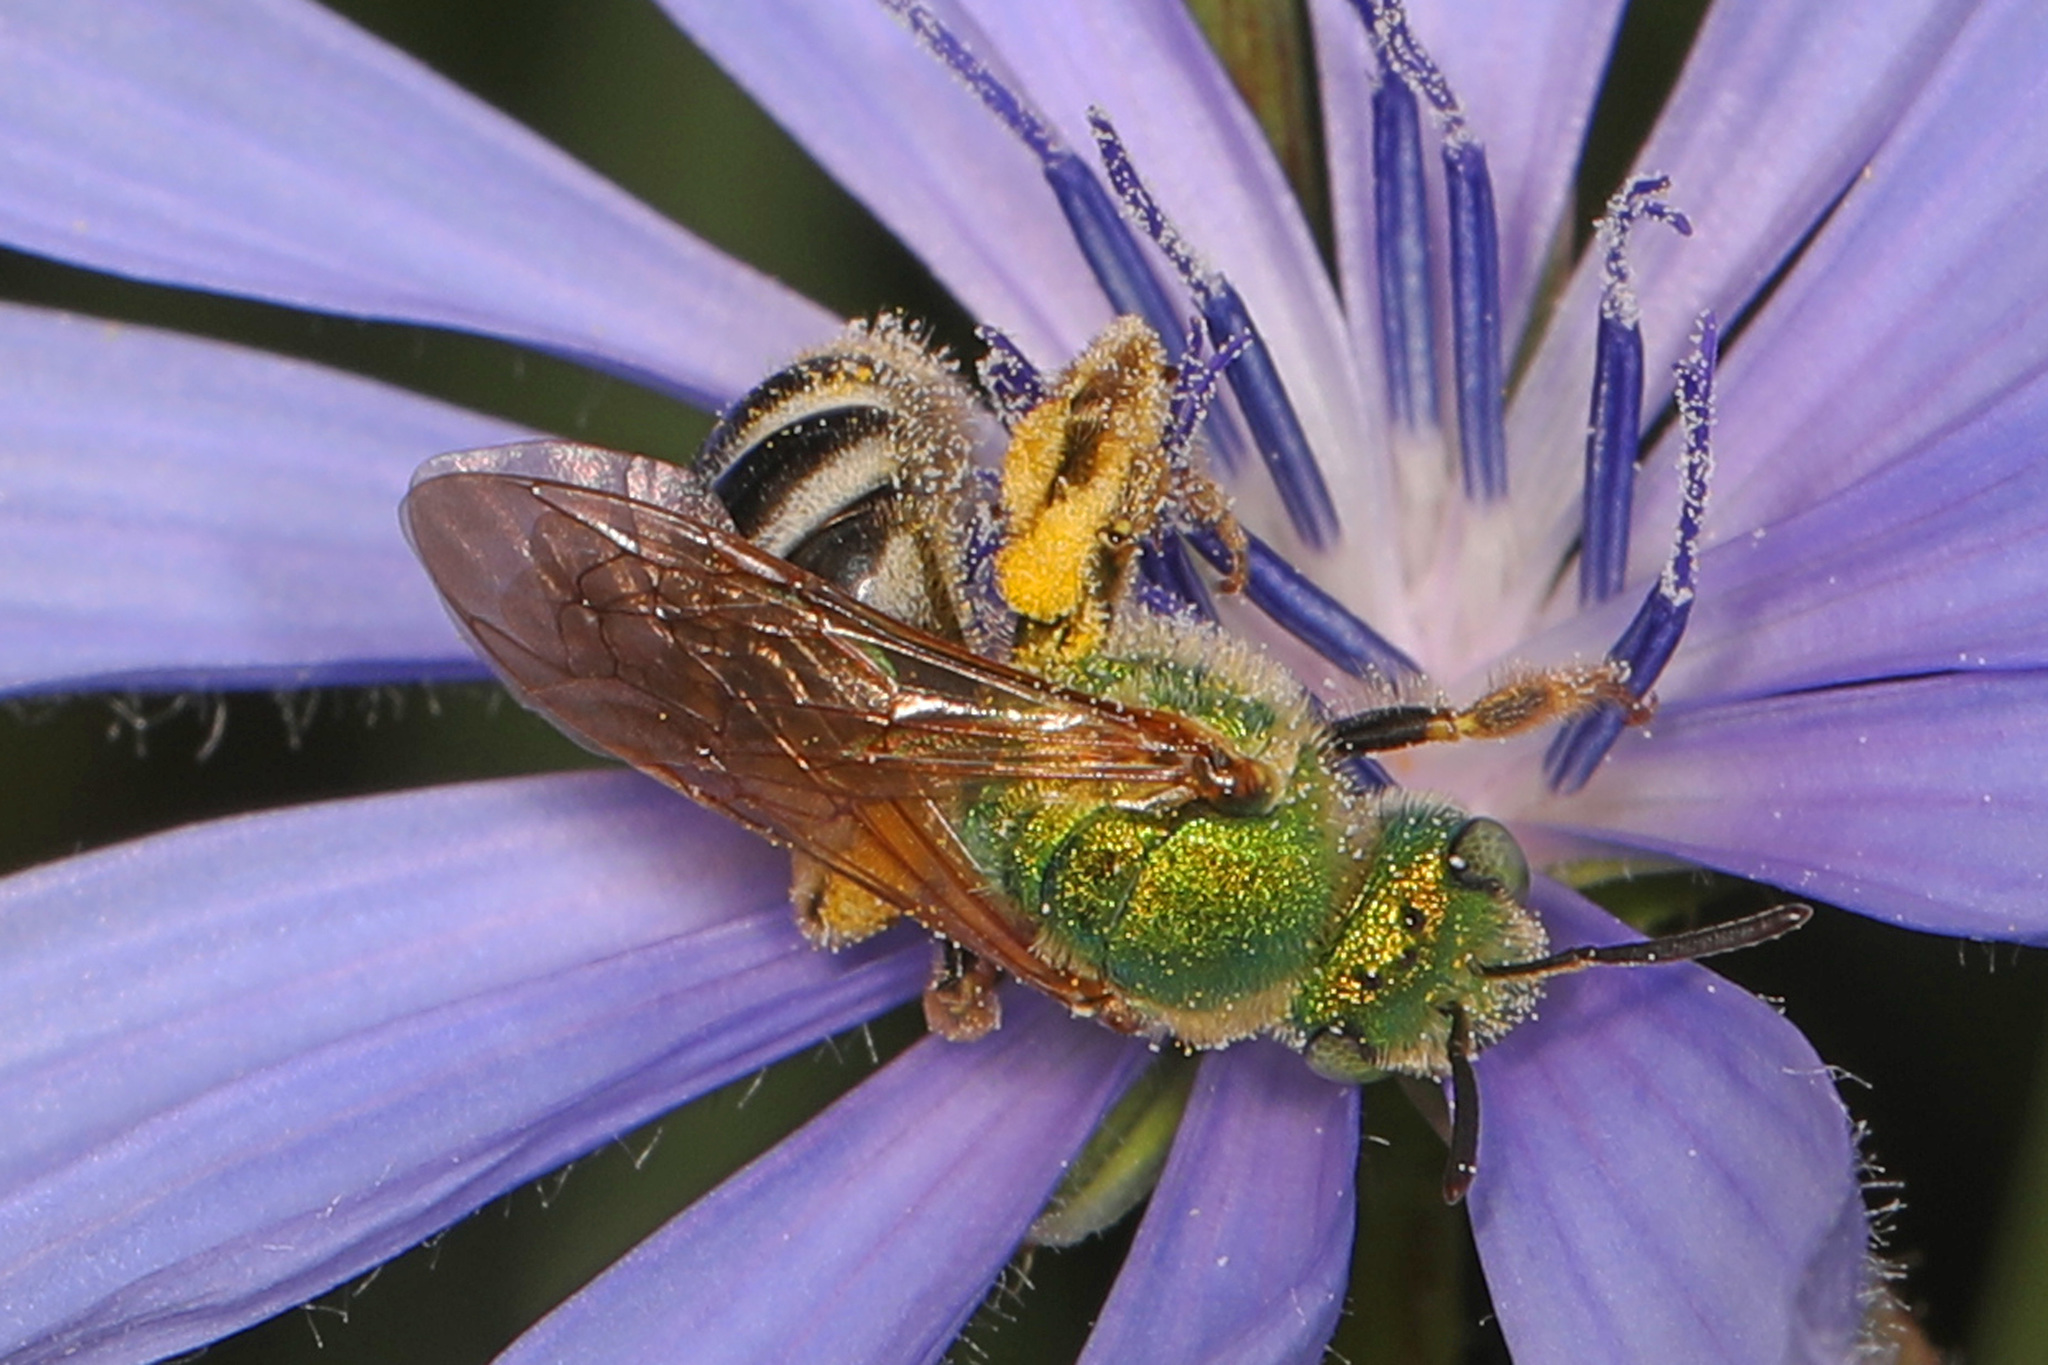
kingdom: Animalia
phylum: Arthropoda
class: Insecta
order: Hymenoptera
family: Halictidae
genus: Agapostemon
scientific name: Agapostemon virescens
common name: Bicolored striped sweat bee
